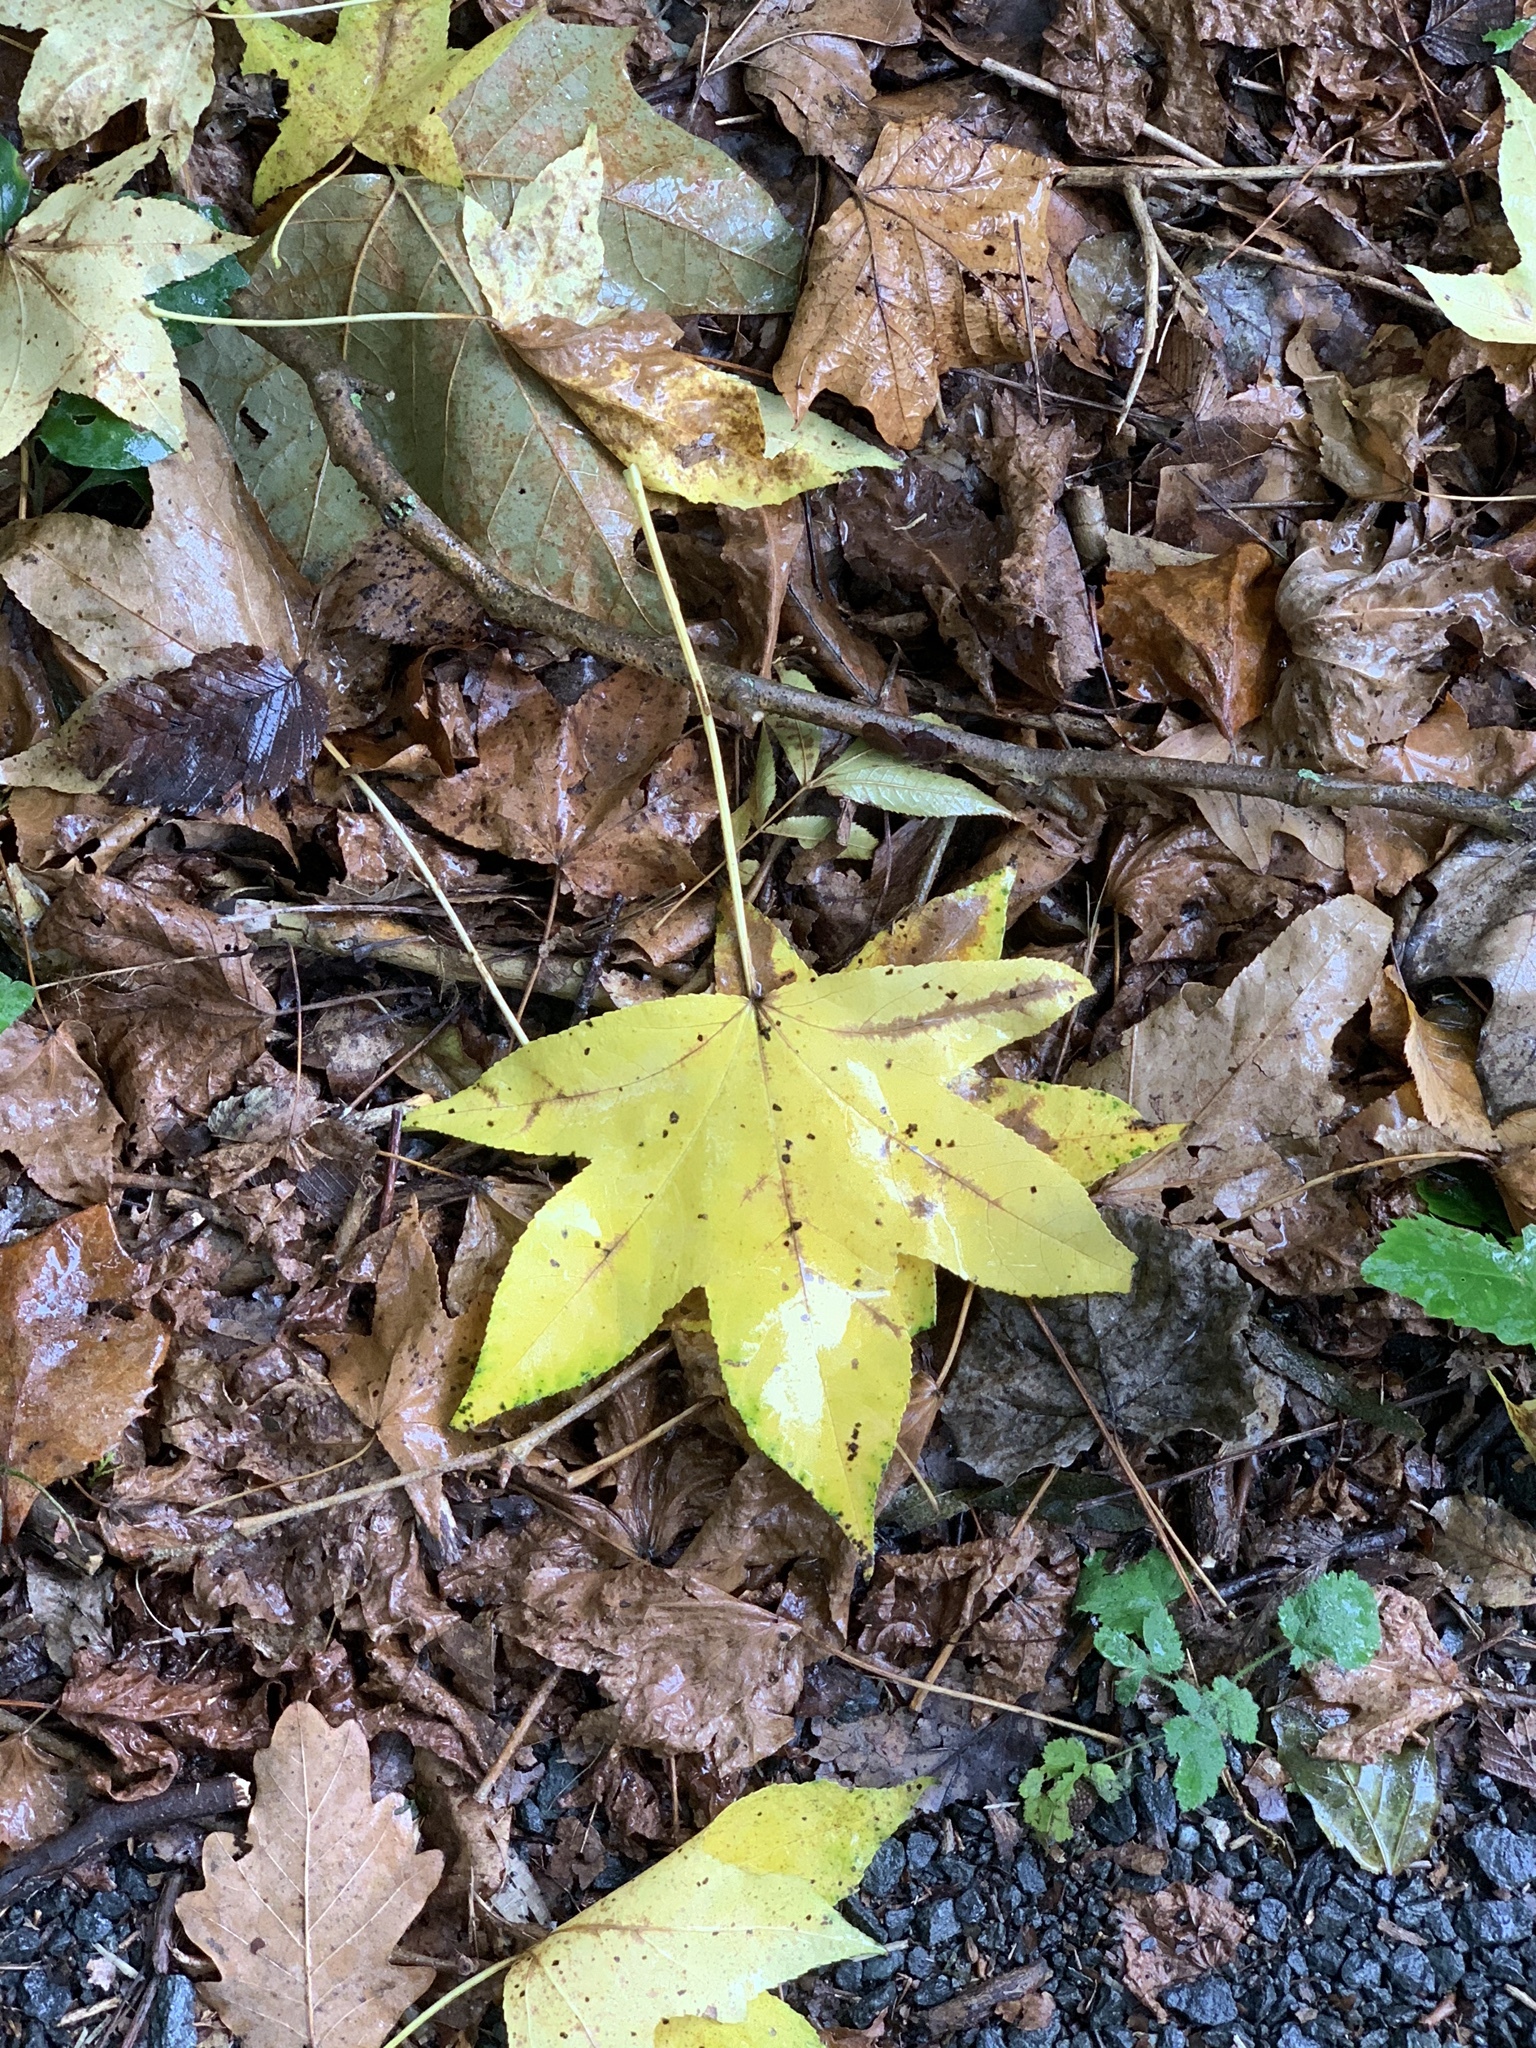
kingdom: Plantae
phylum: Tracheophyta
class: Magnoliopsida
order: Saxifragales
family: Altingiaceae
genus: Liquidambar
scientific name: Liquidambar styraciflua
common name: Sweet gum
